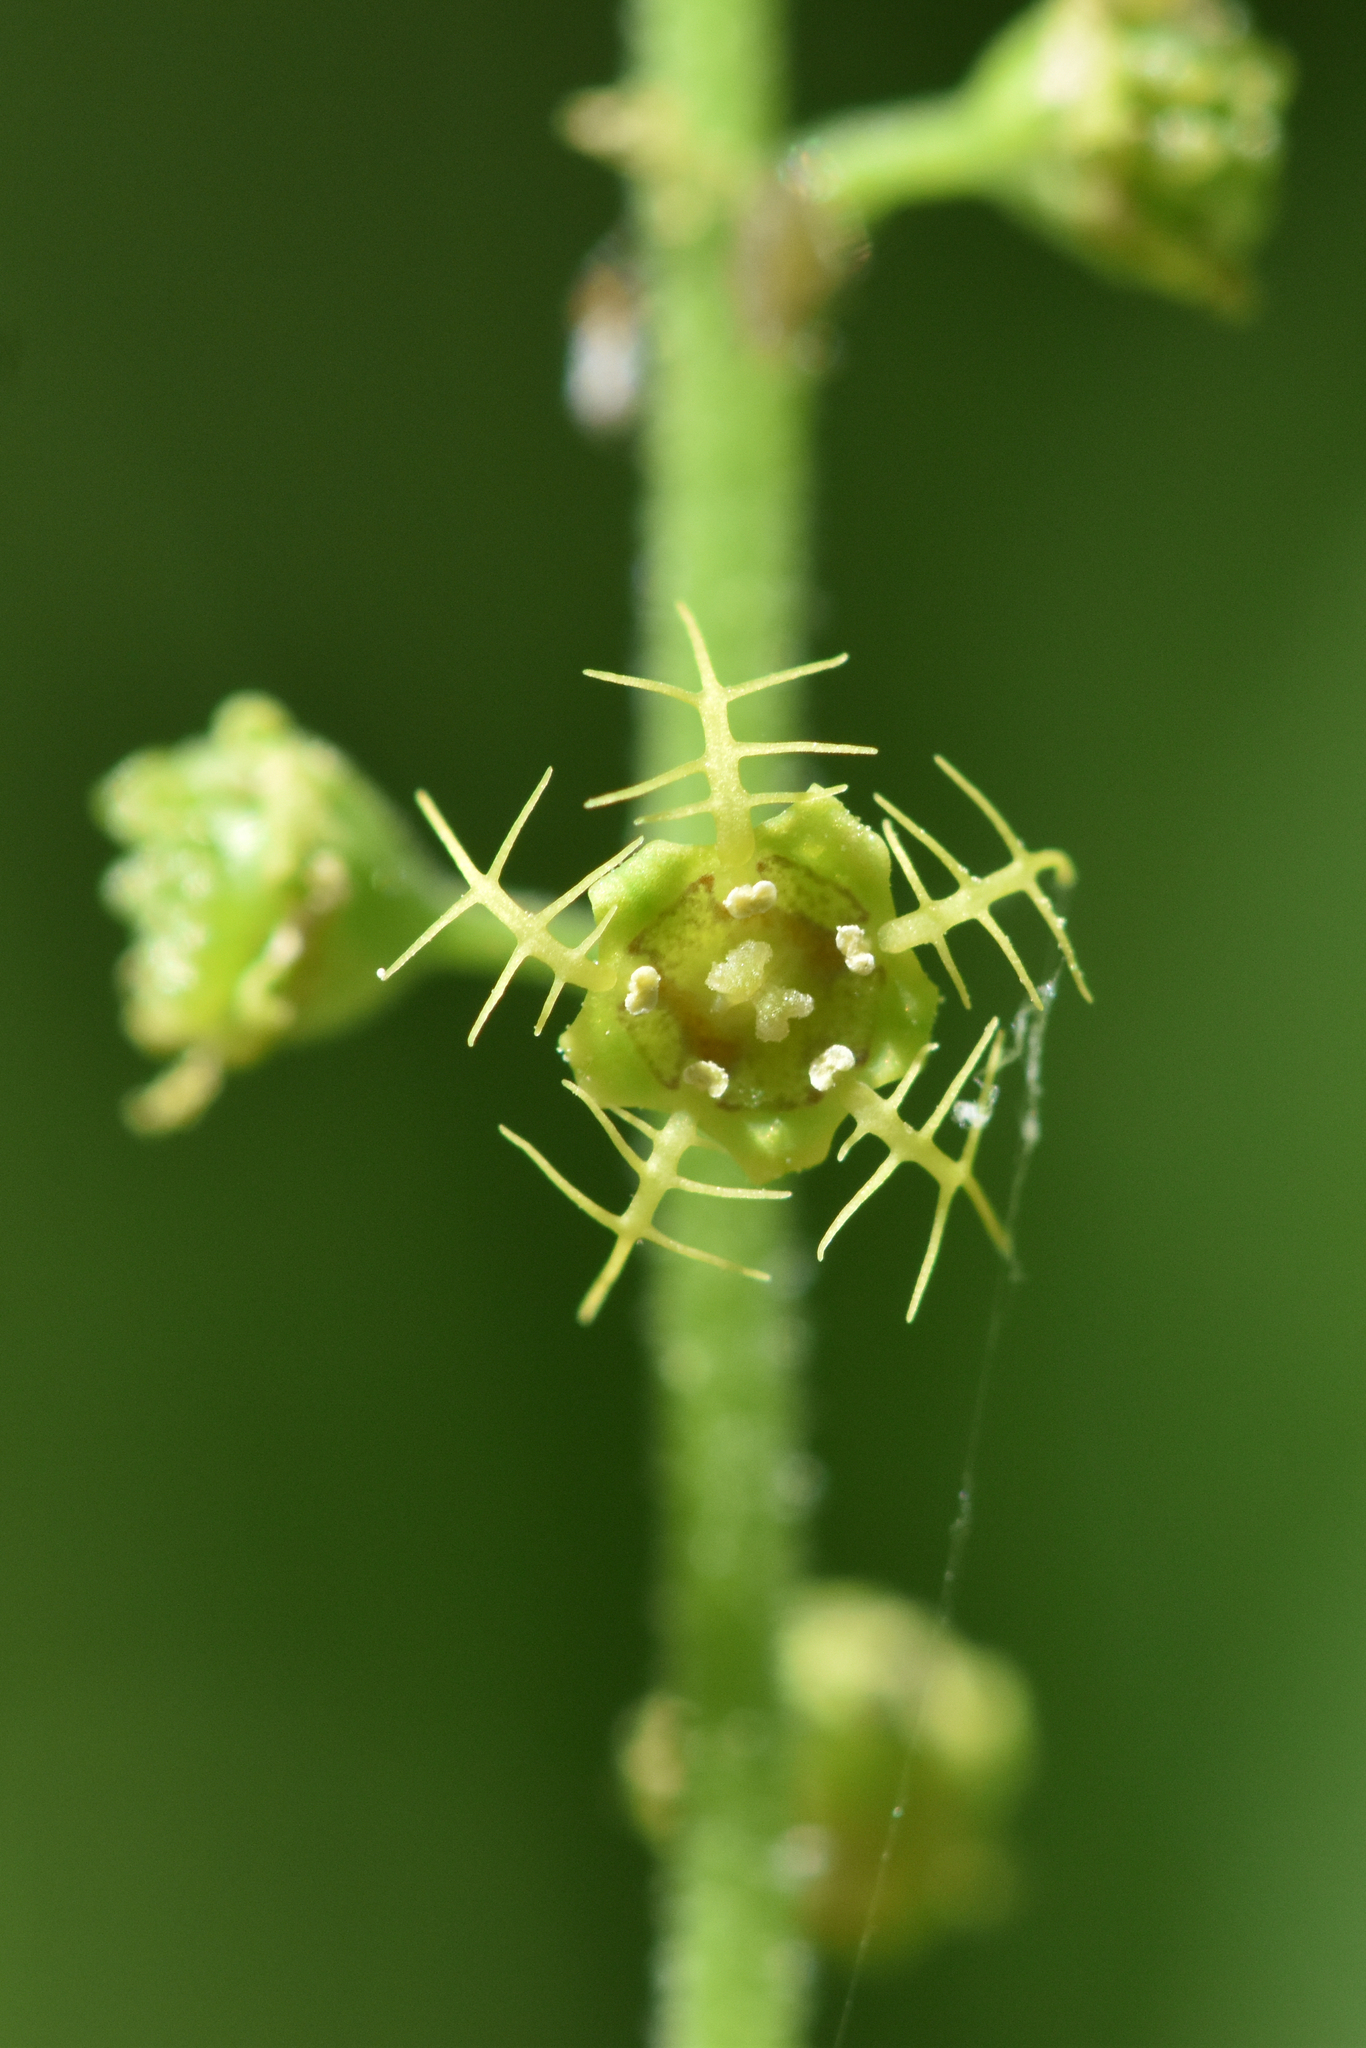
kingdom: Plantae
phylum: Tracheophyta
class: Magnoliopsida
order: Saxifragales
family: Saxifragaceae
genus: Pectiantia
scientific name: Pectiantia pentandra
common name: Alpine bishop's-cap
